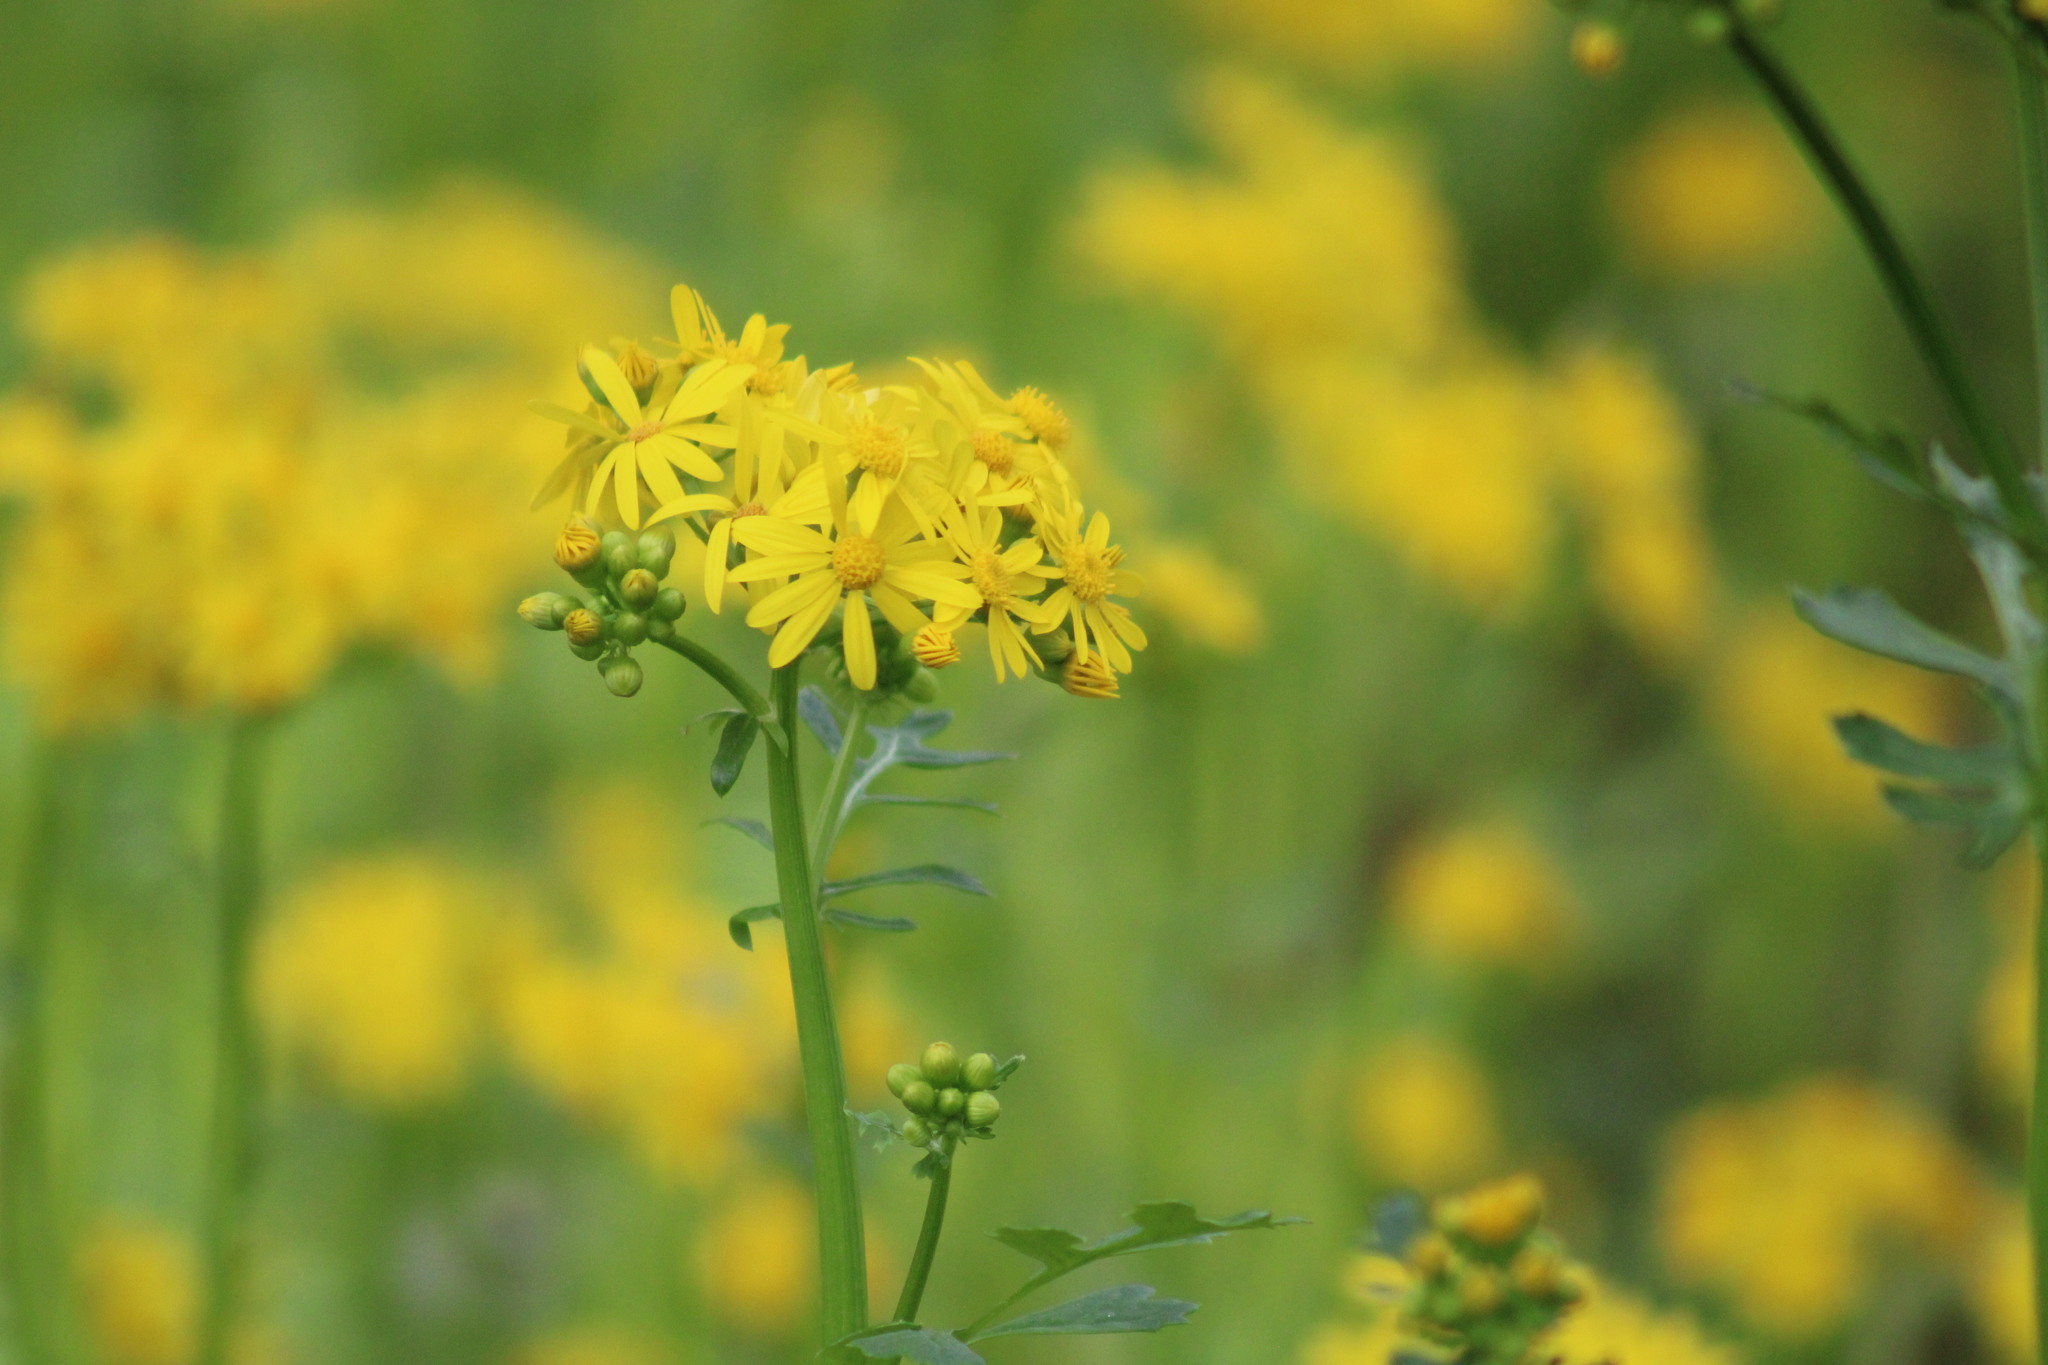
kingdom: Plantae
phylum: Tracheophyta
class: Magnoliopsida
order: Asterales
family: Asteraceae
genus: Packera
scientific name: Packera glabella
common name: Butterweed
